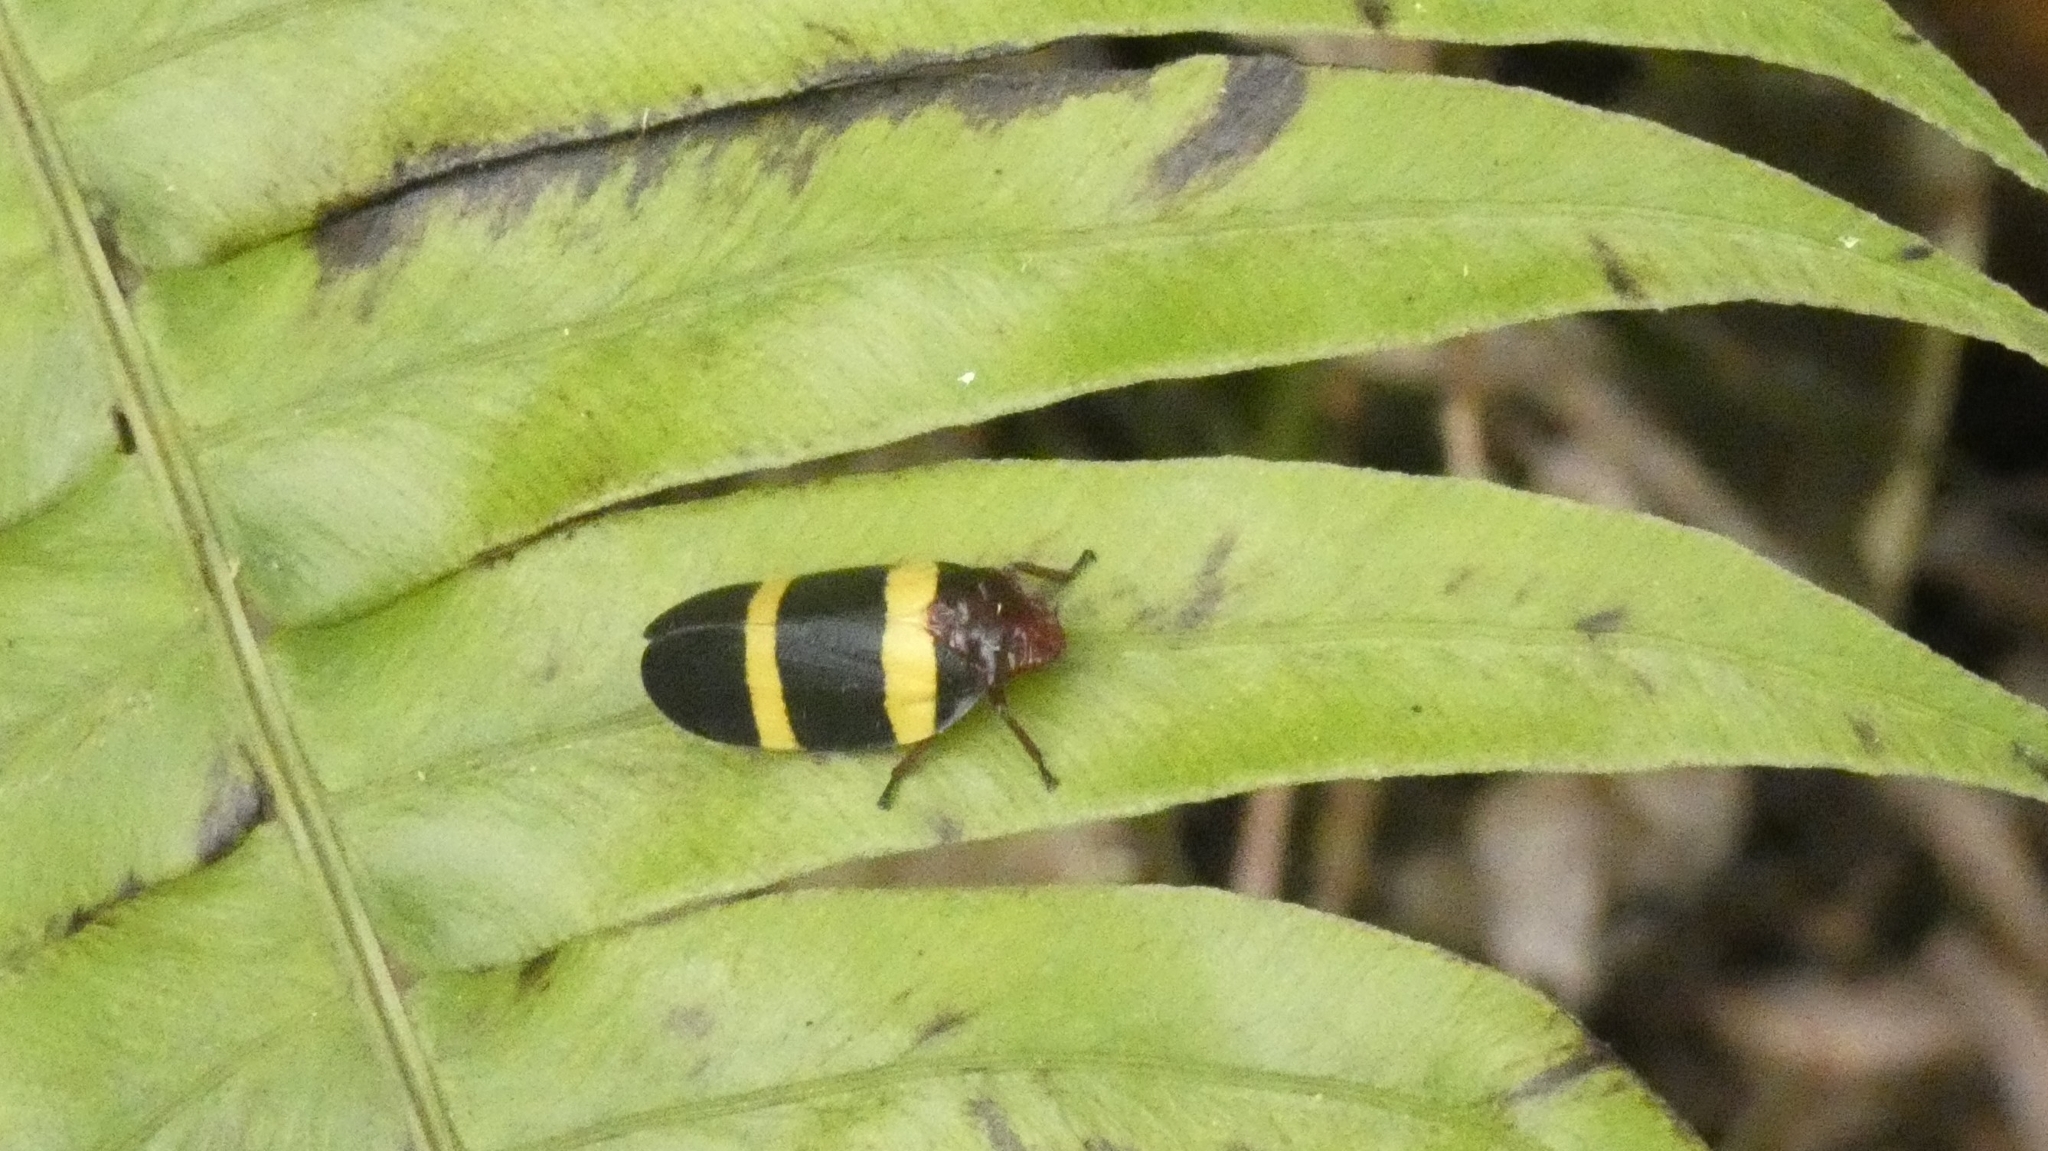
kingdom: Animalia
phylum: Arthropoda
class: Insecta
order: Hemiptera
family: Cercopidae
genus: Sphenorhina
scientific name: Sphenorhina rubra
